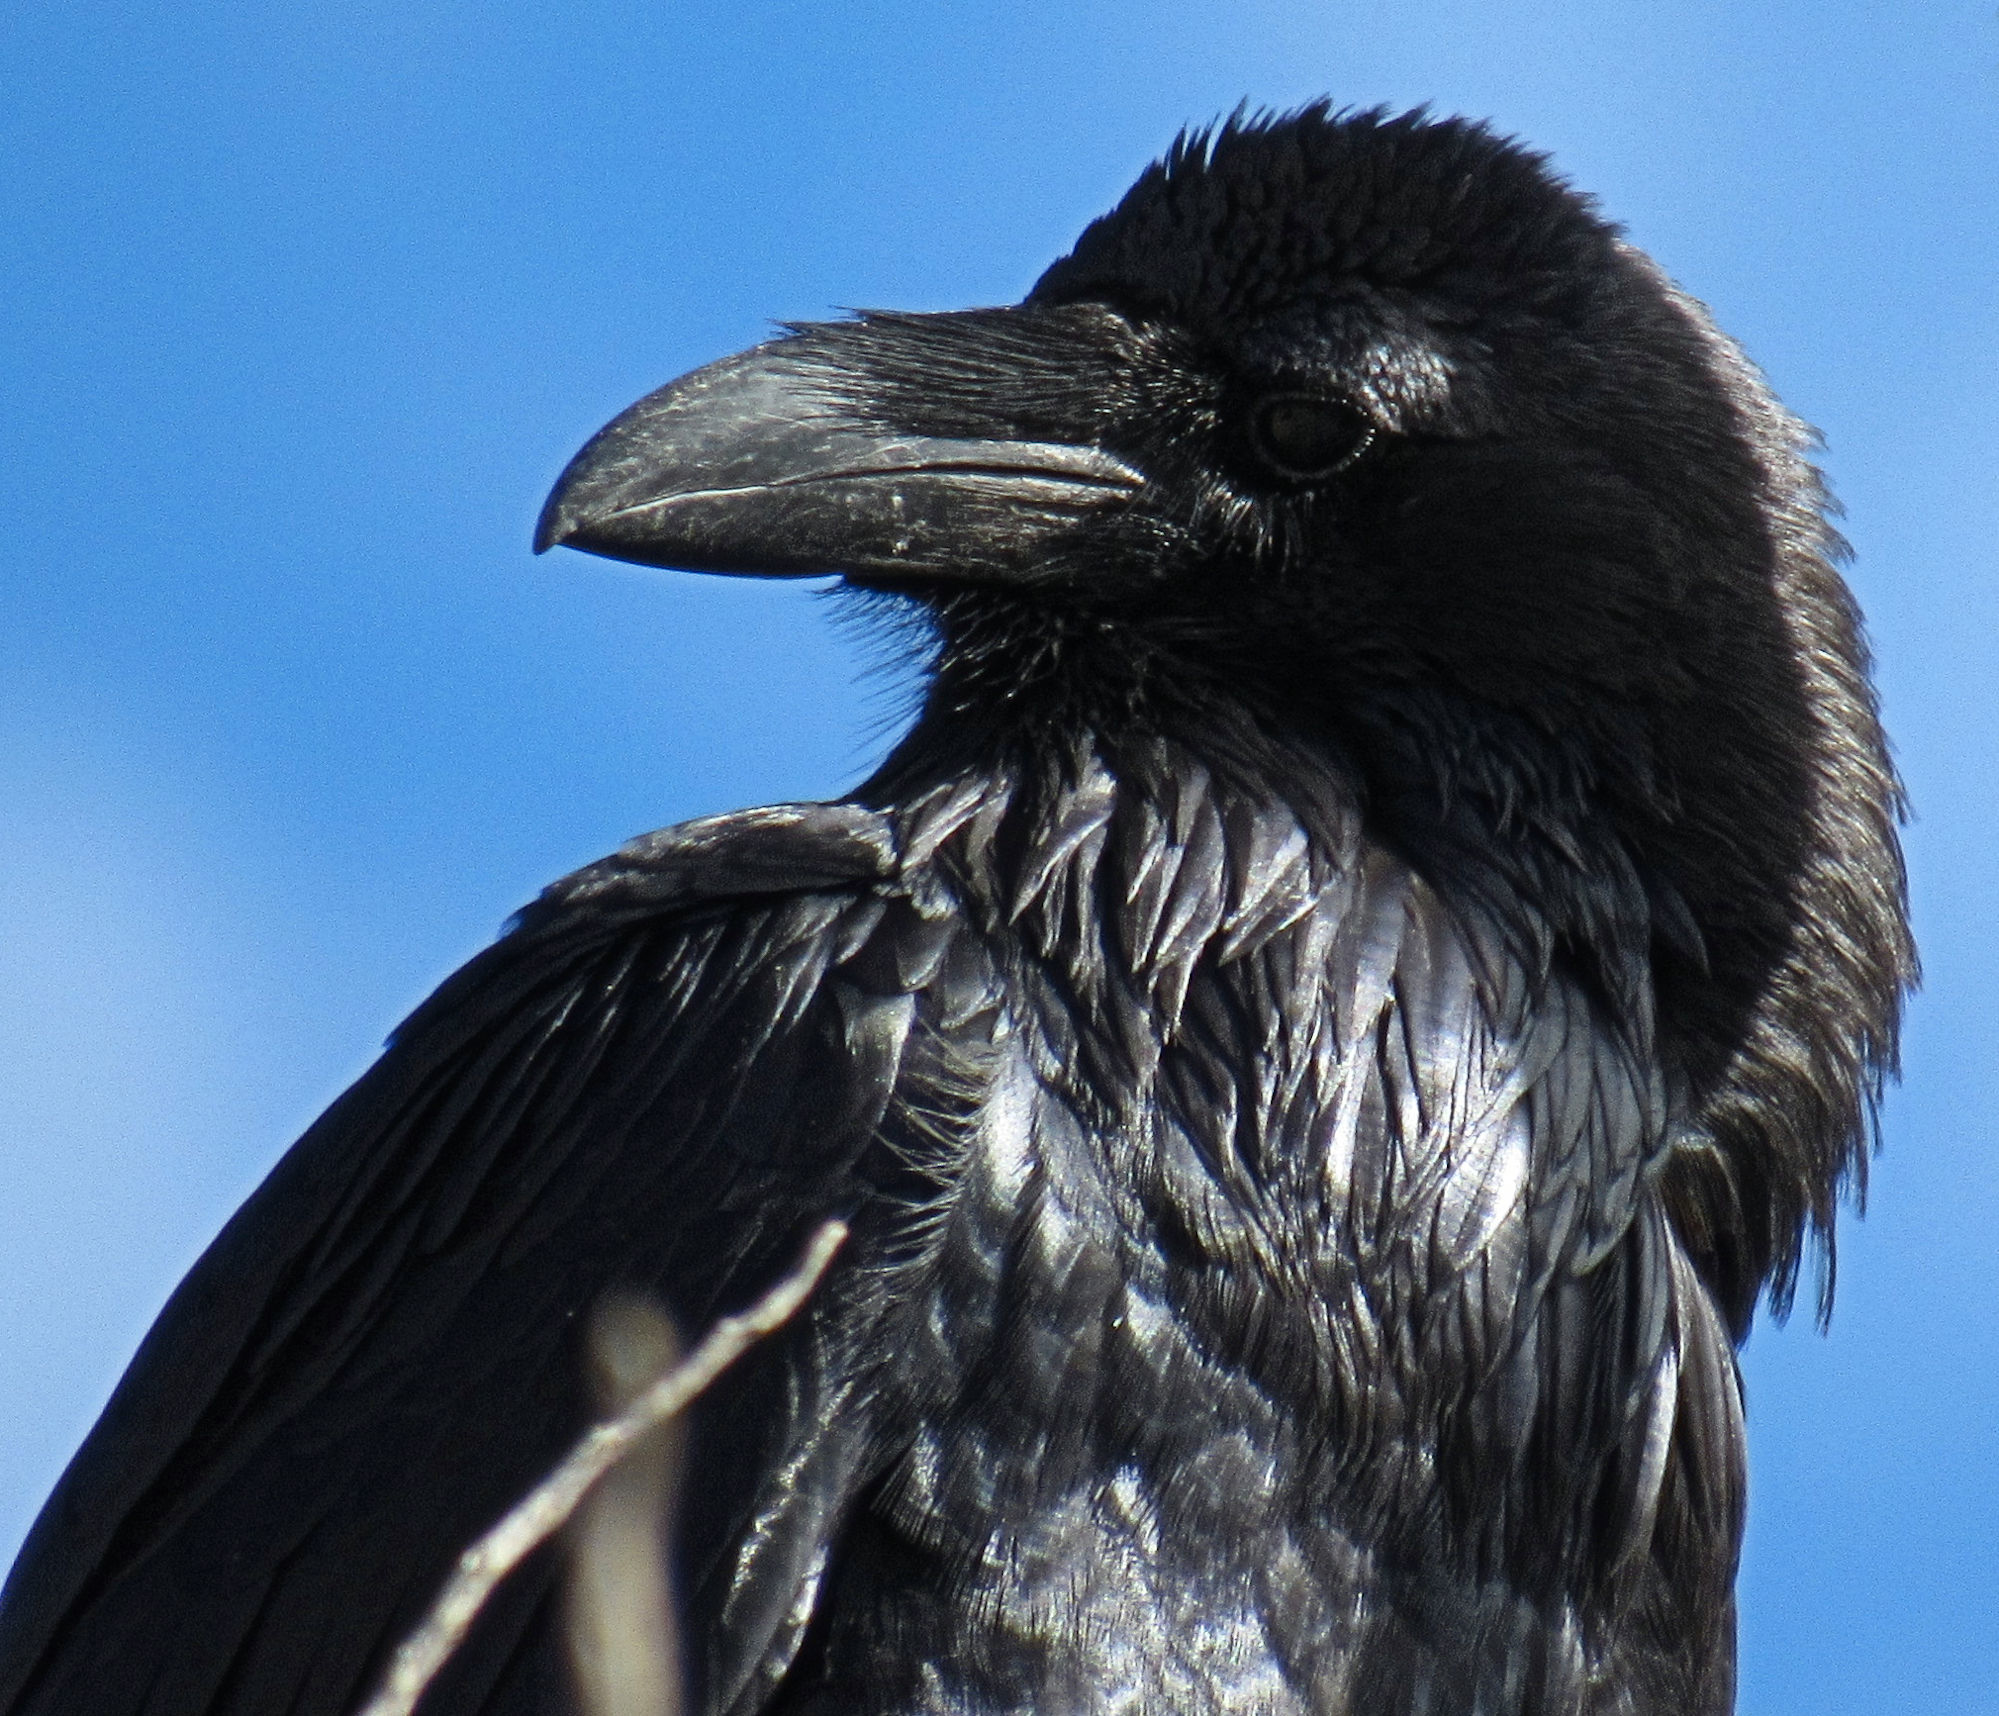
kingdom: Animalia
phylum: Chordata
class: Aves
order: Passeriformes
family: Corvidae
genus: Corvus
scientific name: Corvus corax
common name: Common raven
